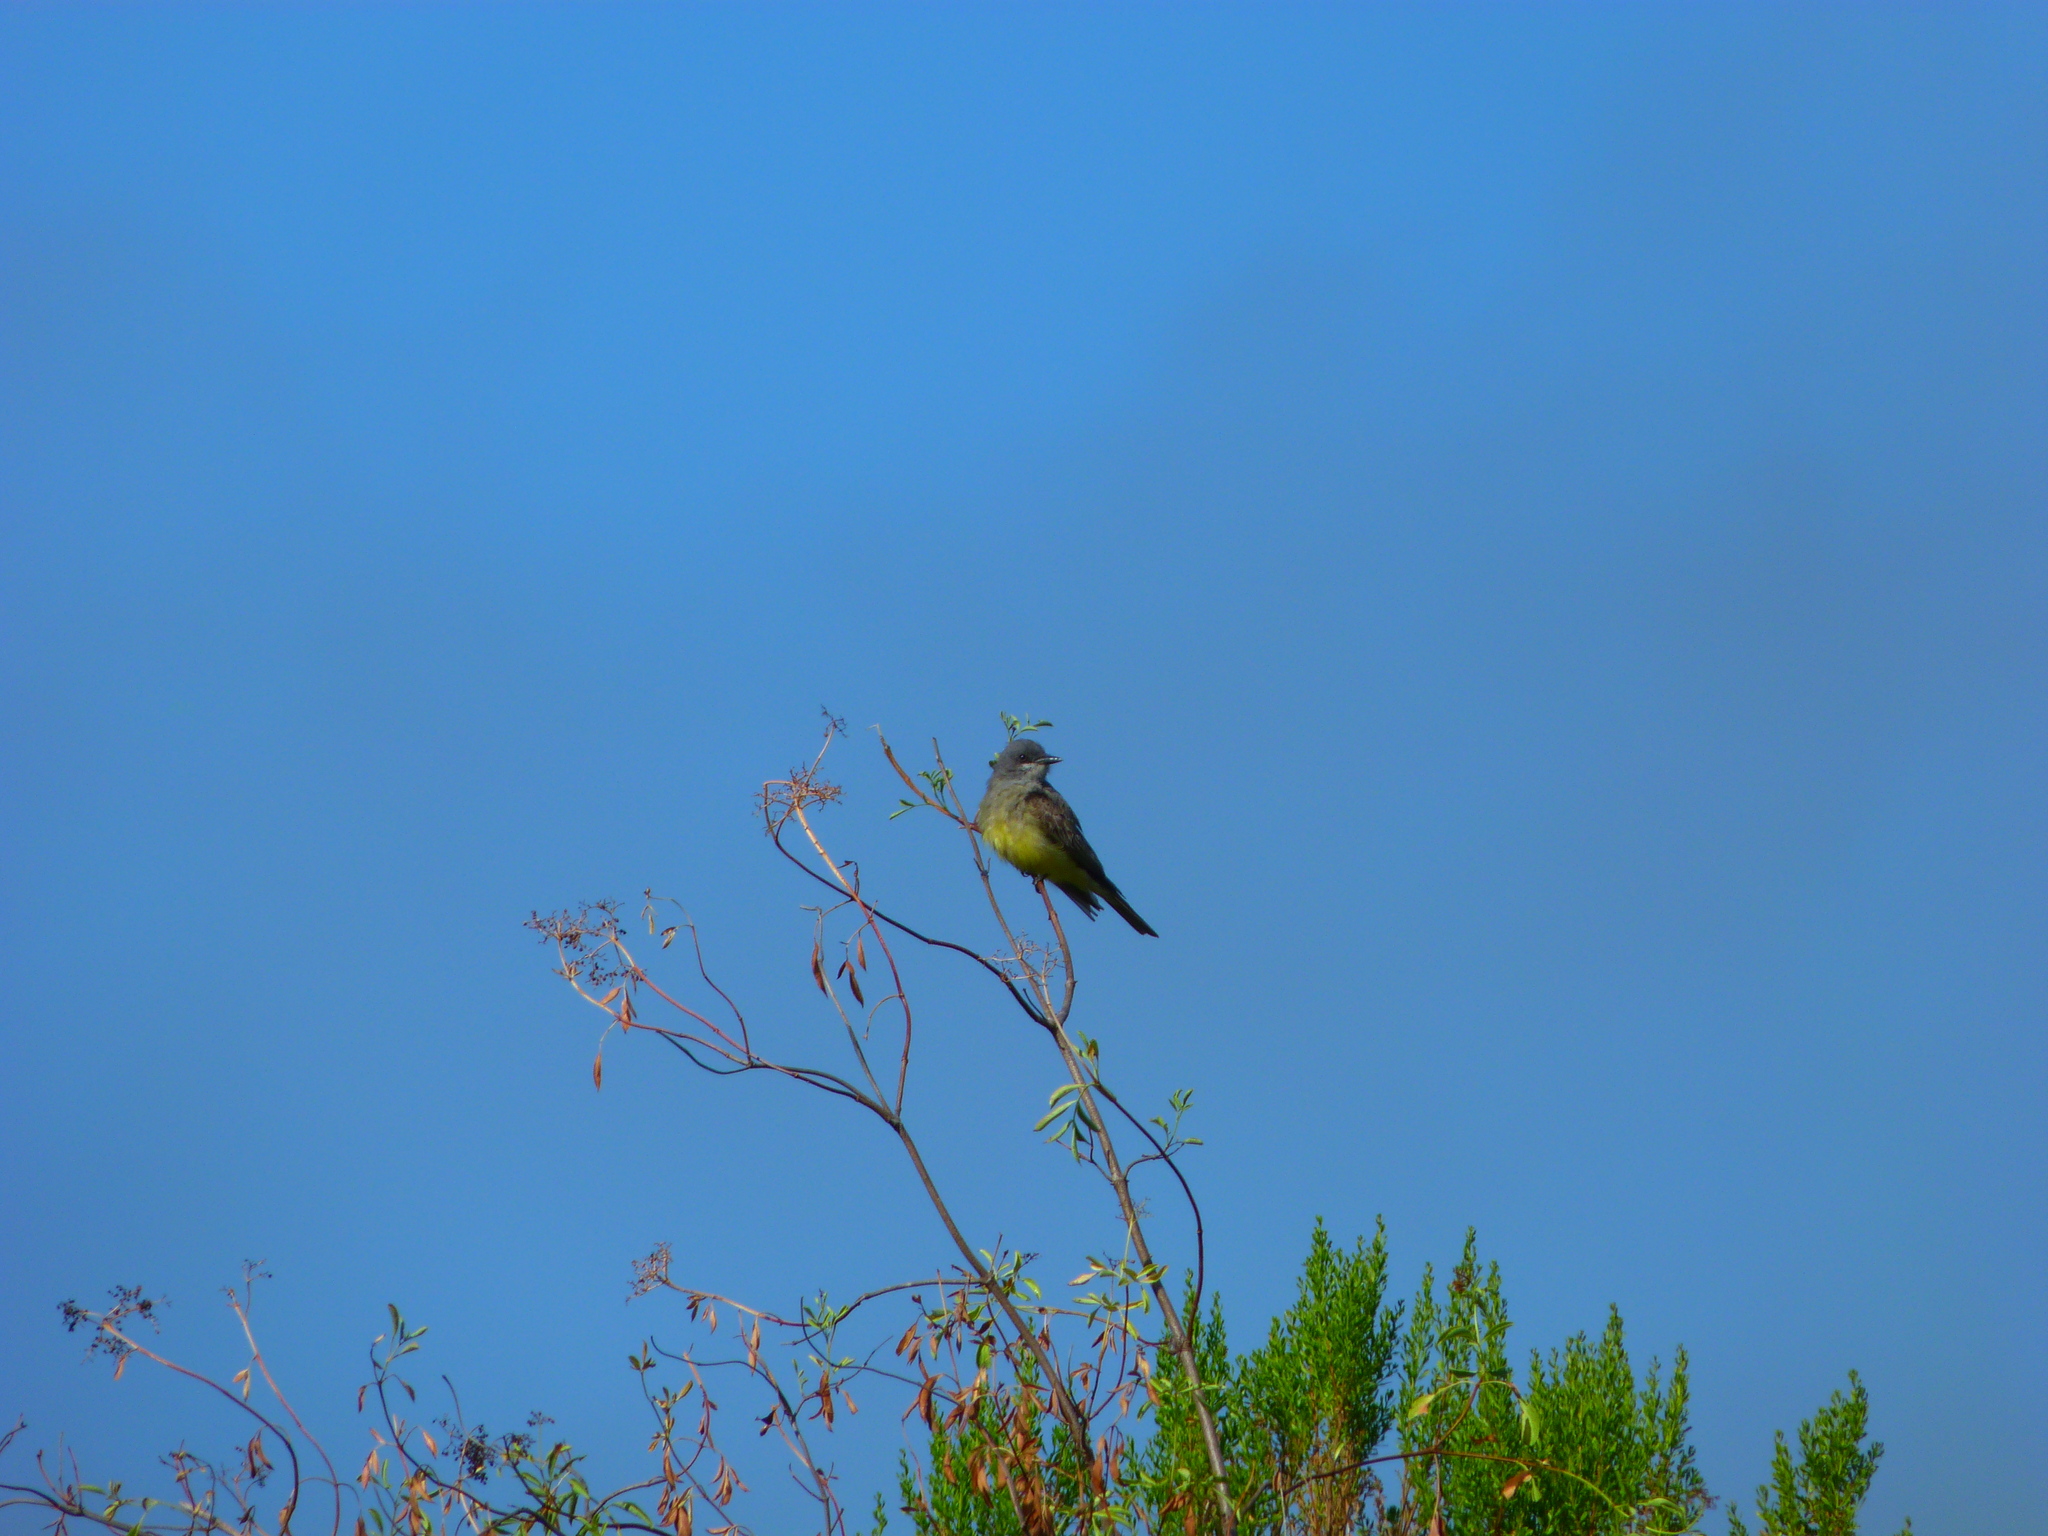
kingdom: Animalia
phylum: Chordata
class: Aves
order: Passeriformes
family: Tyrannidae
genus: Tyrannus
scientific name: Tyrannus vociferans
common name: Cassin's kingbird
